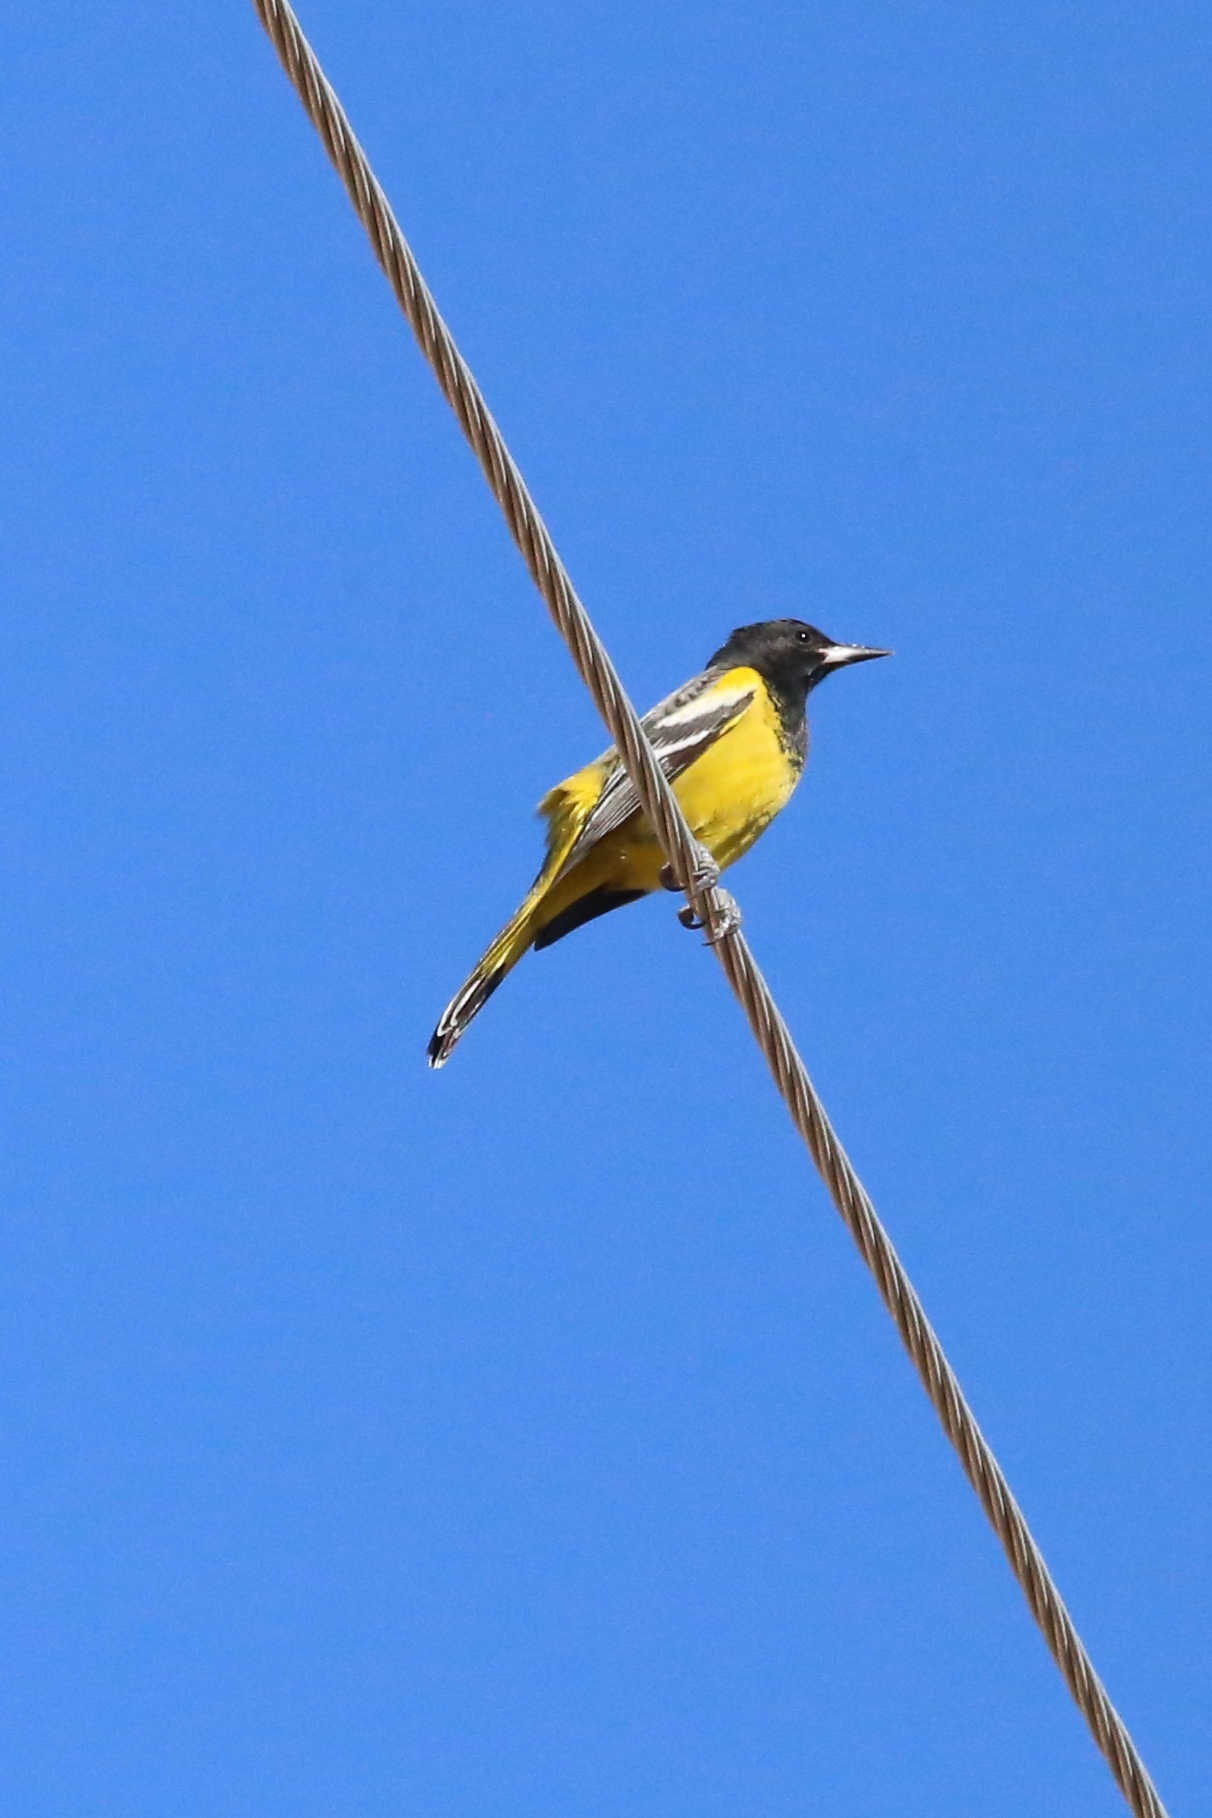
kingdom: Animalia
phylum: Chordata
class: Aves
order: Passeriformes
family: Icteridae
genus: Icterus
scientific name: Icterus parisorum
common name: Scott's oriole
